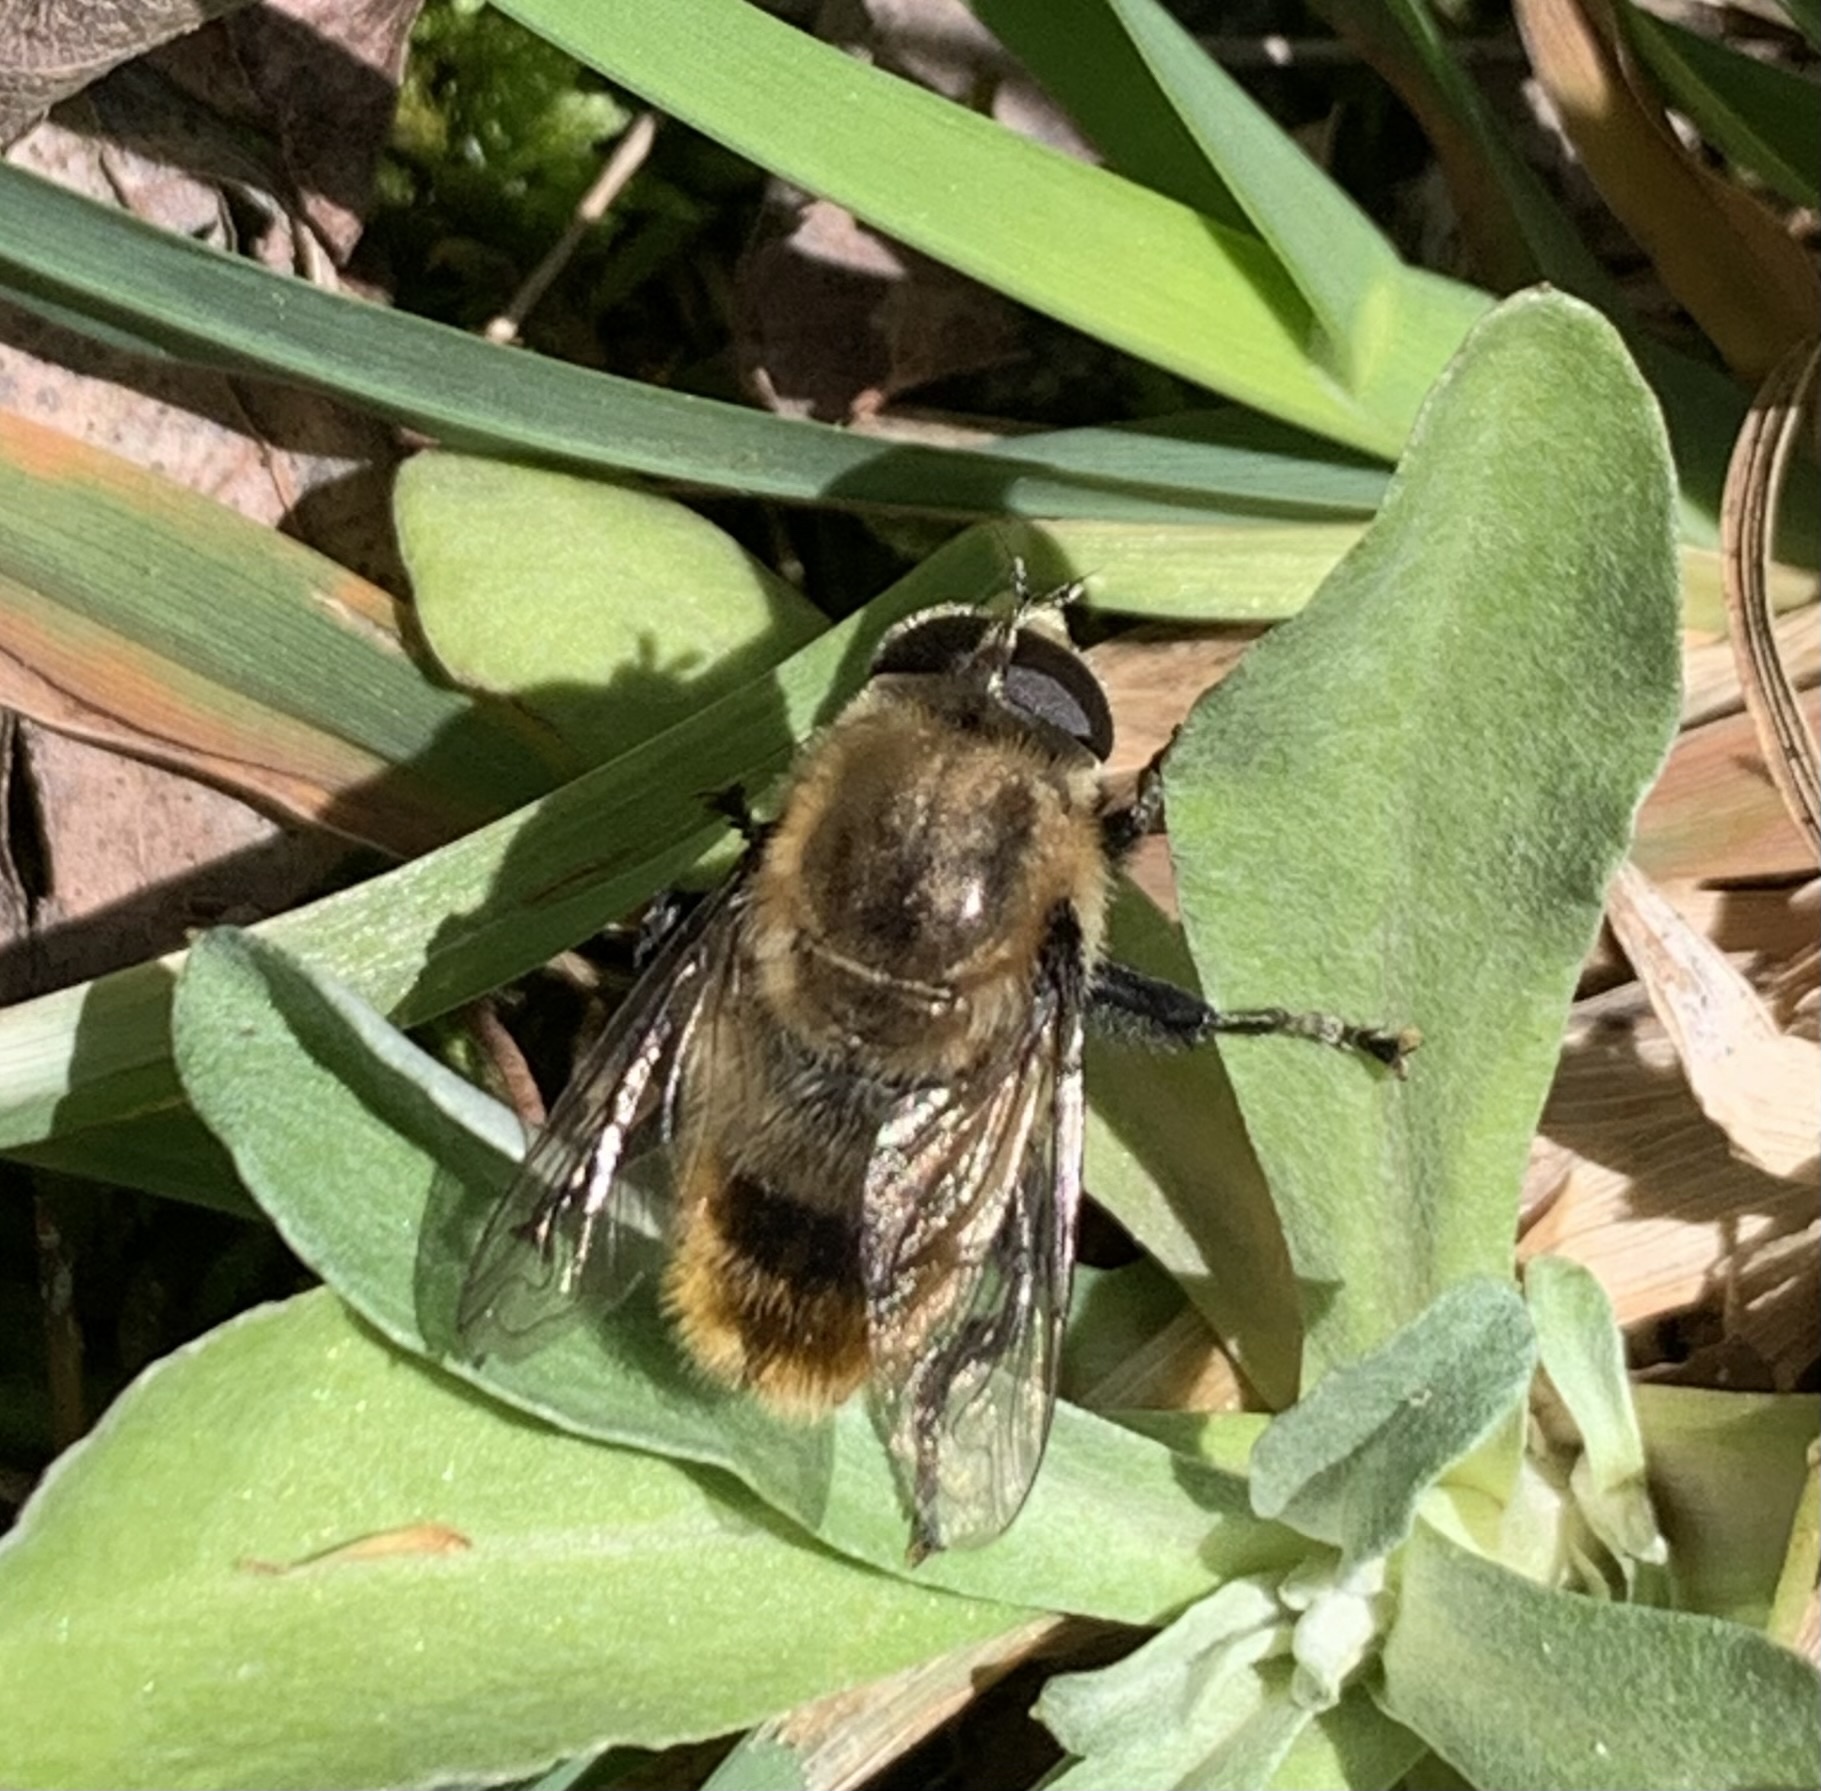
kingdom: Animalia
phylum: Arthropoda
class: Insecta
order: Diptera
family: Syrphidae
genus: Merodon
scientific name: Merodon equestris
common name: Greater bulb-fly
